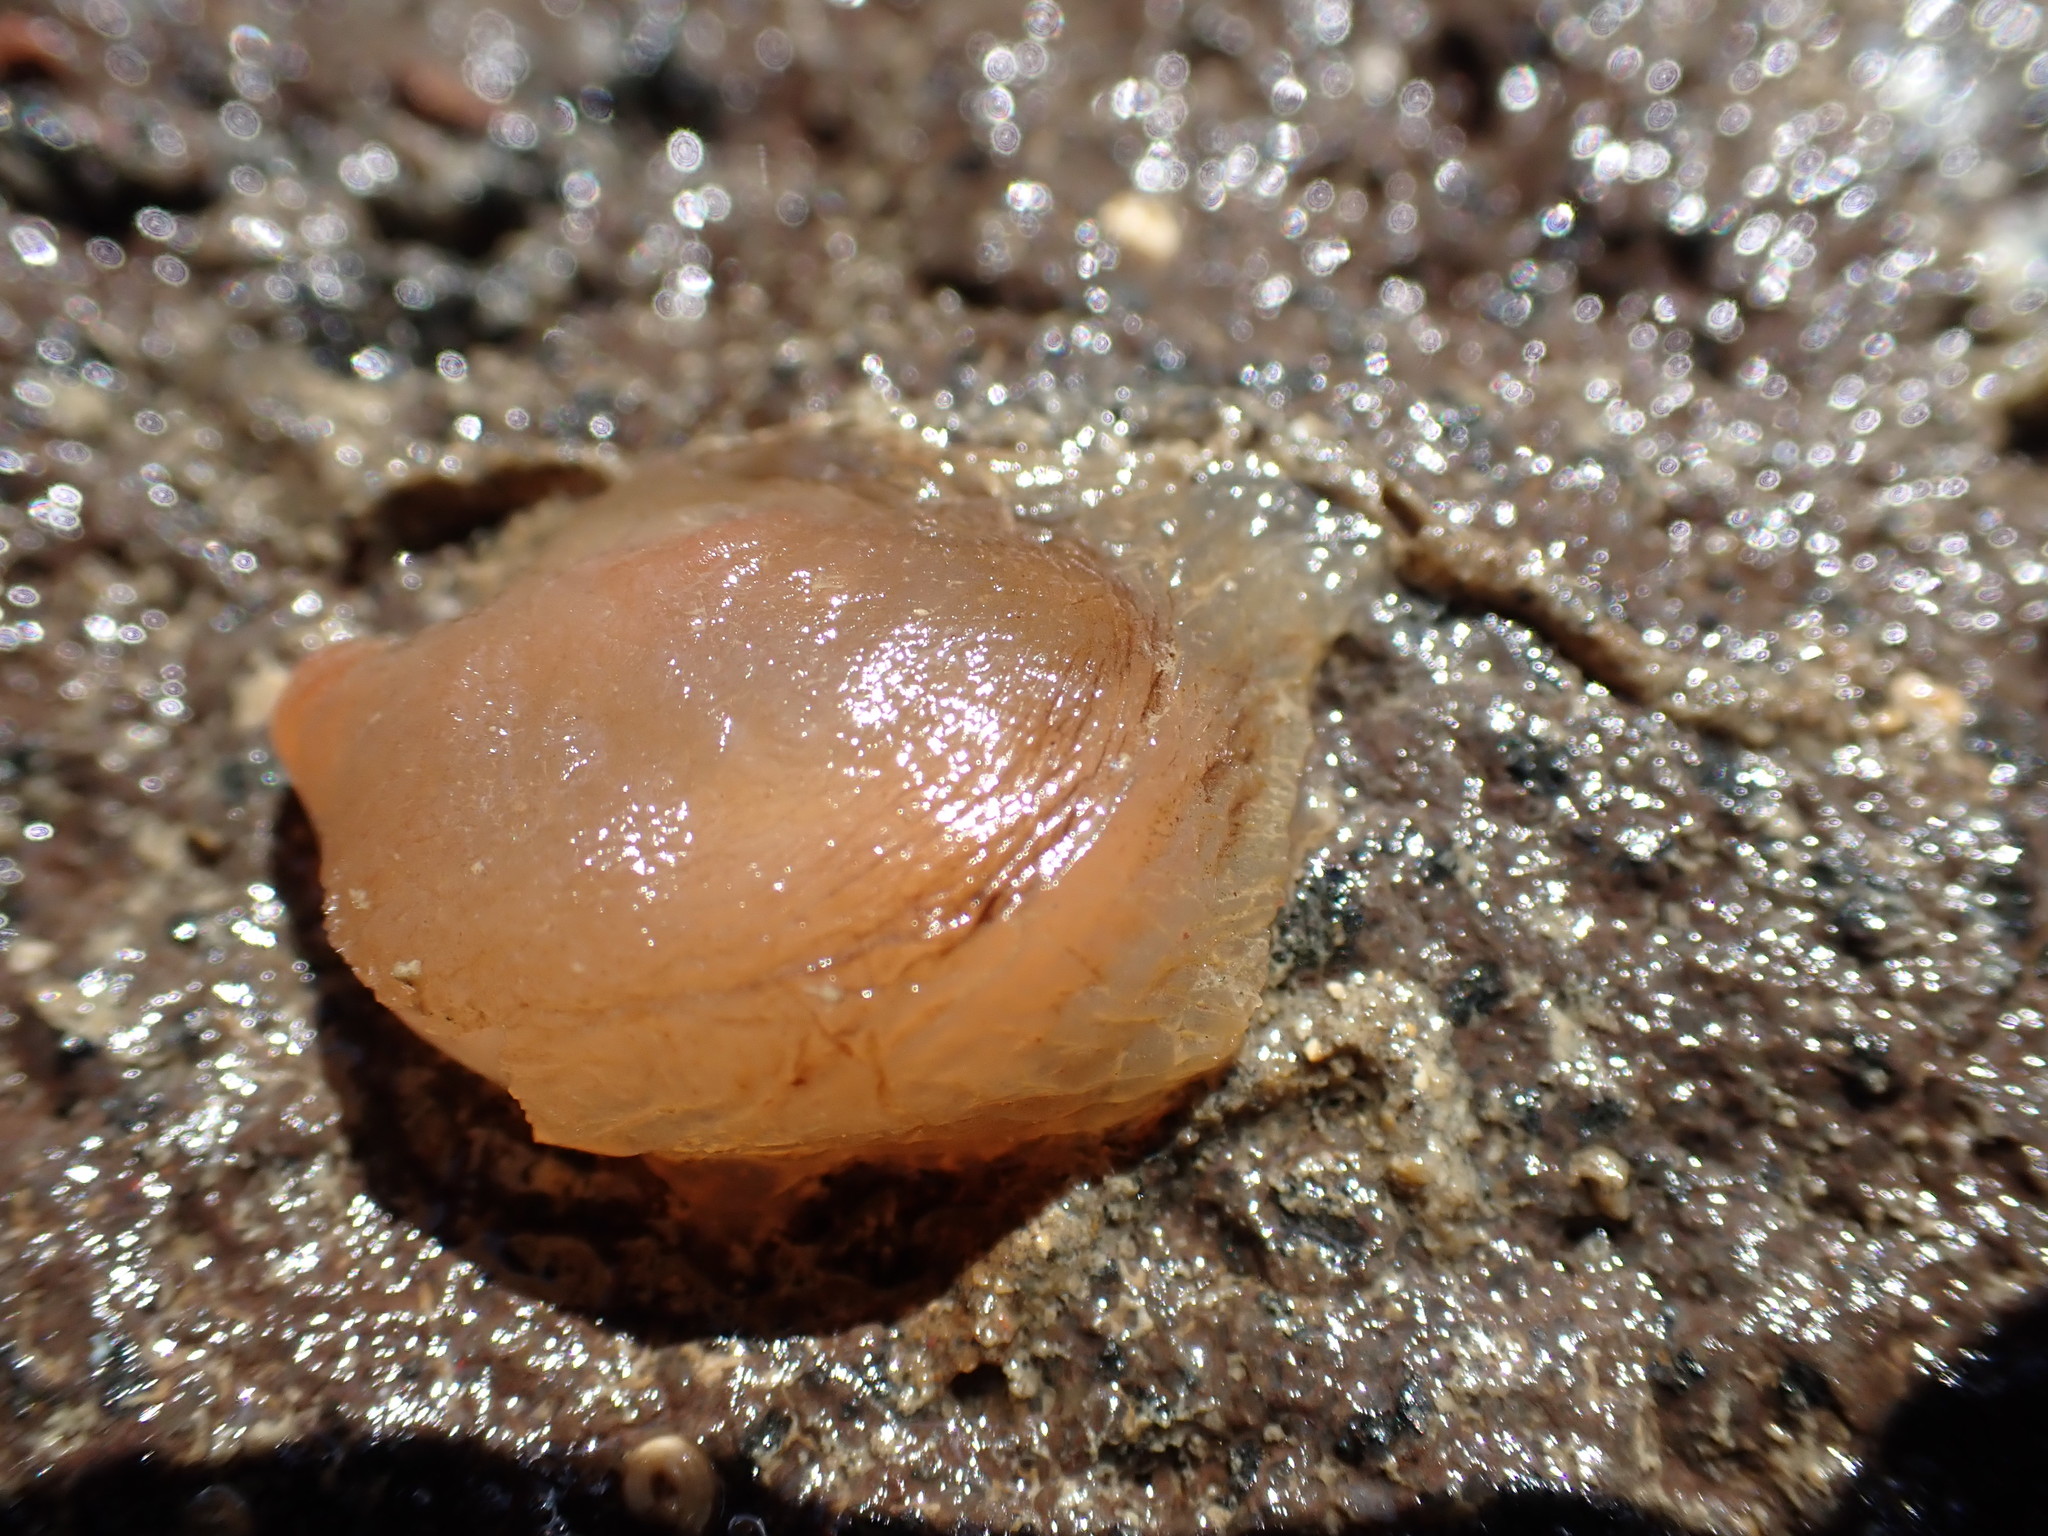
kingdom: Animalia
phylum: Chordata
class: Ascidiacea
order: Phlebobranchia
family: Corellidae
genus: Corella
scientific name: Corella eumyota
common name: Orange-tipped sea squirt
